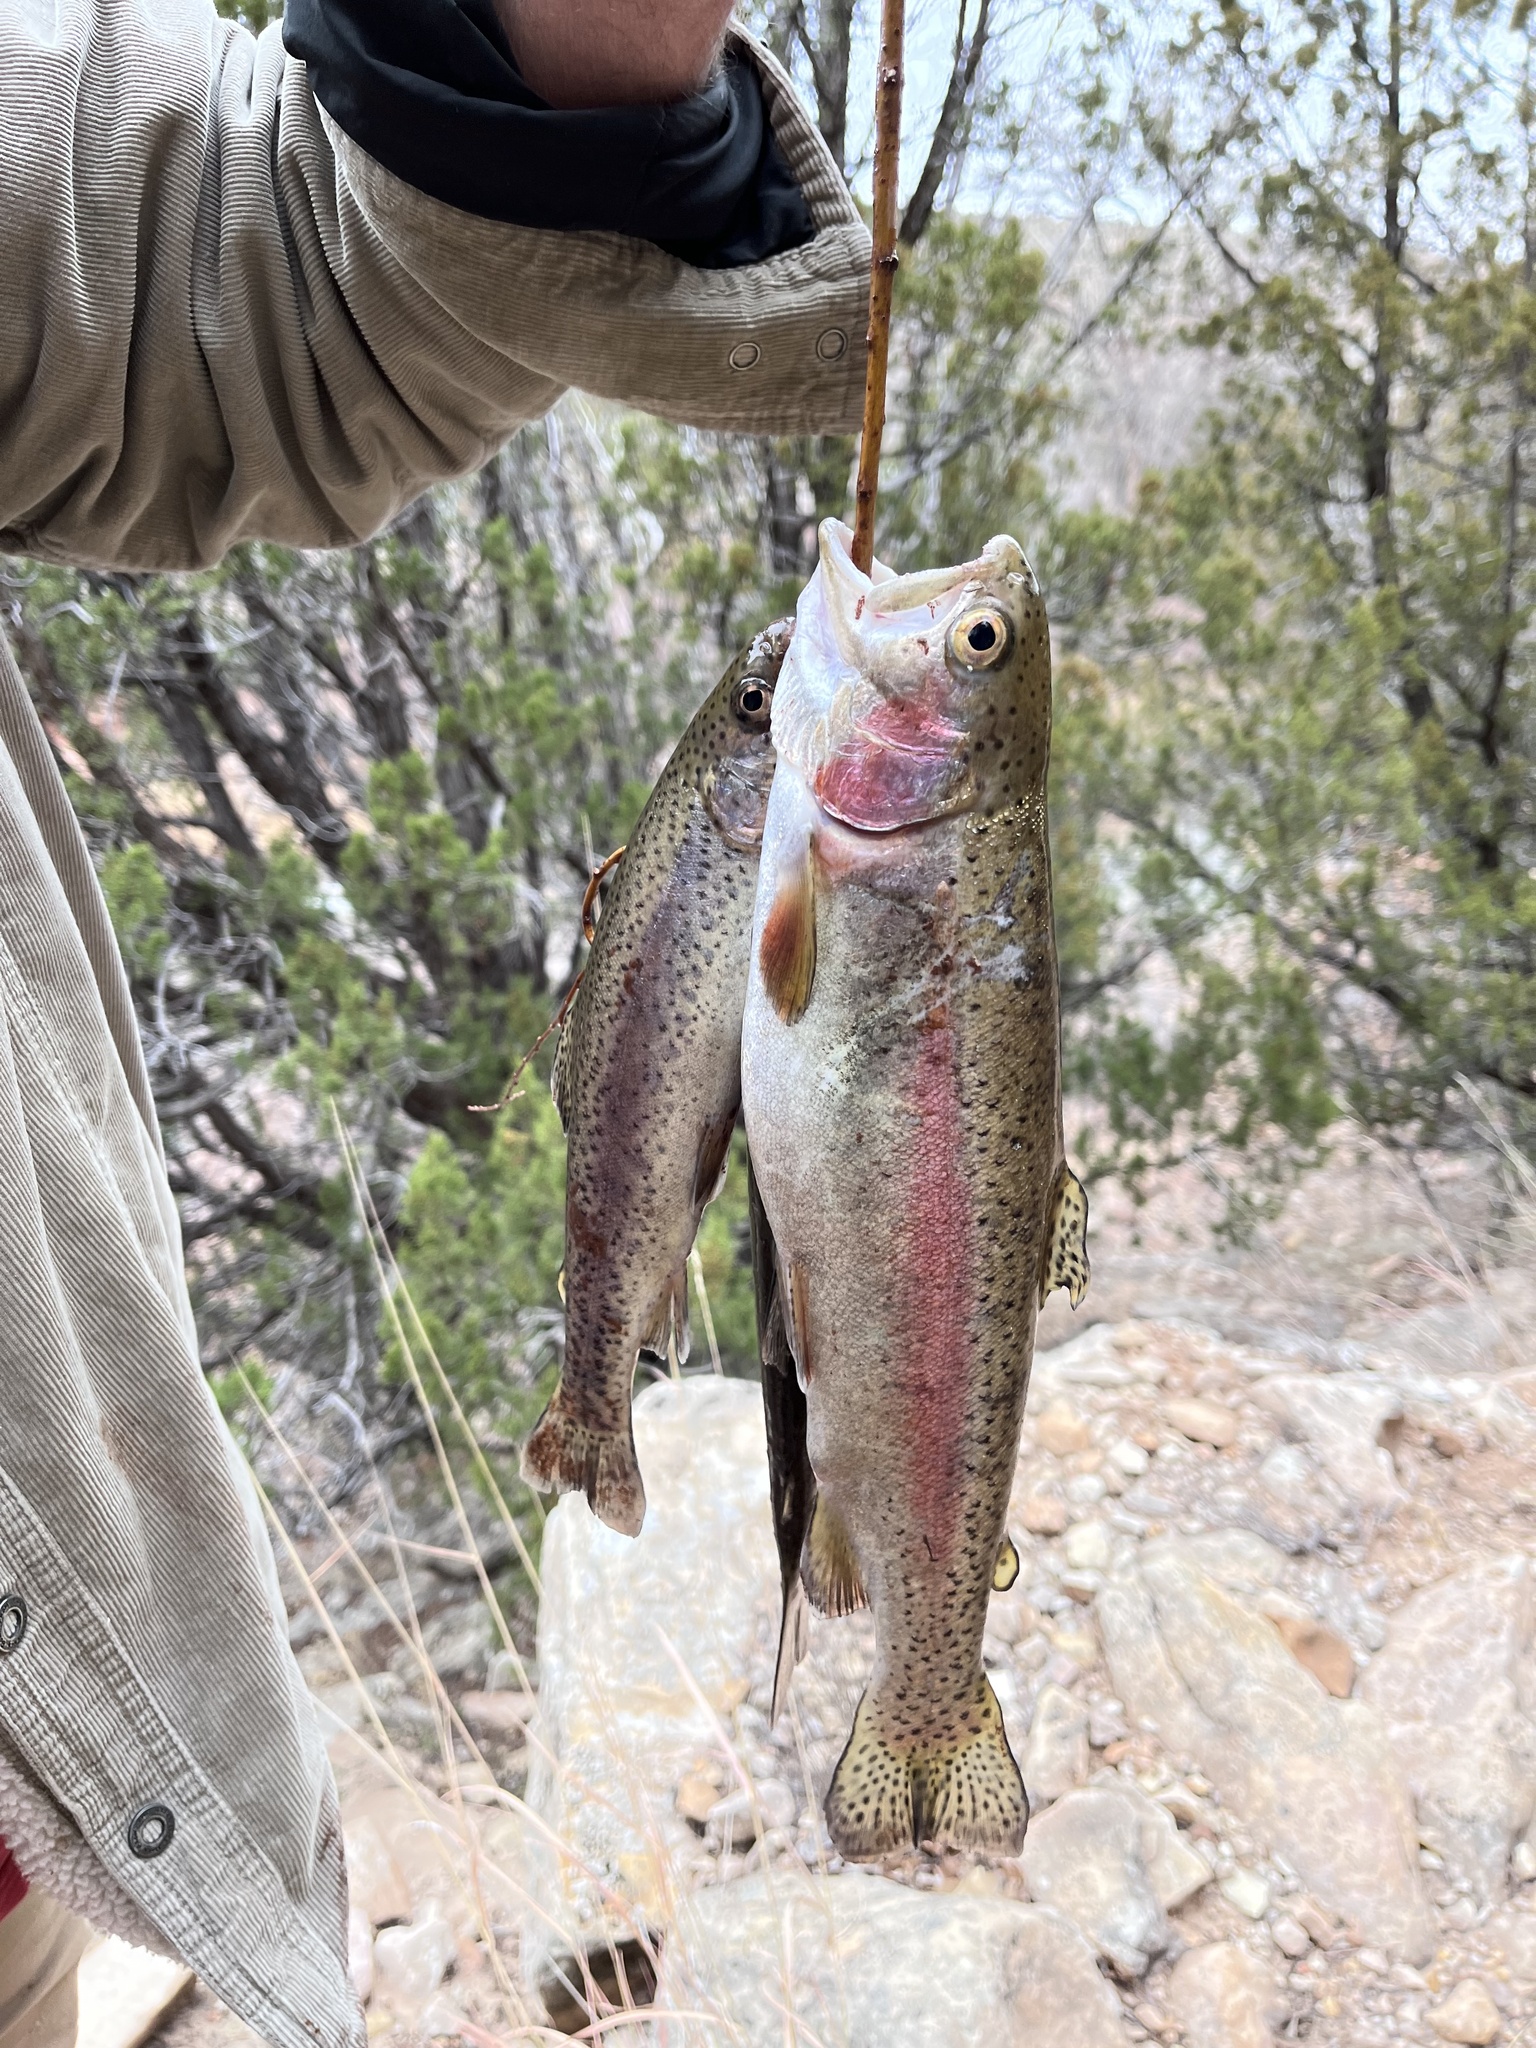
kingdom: Animalia
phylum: Chordata
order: Salmoniformes
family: Salmonidae
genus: Oncorhynchus
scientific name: Oncorhynchus mykiss
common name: Rainbow trout
